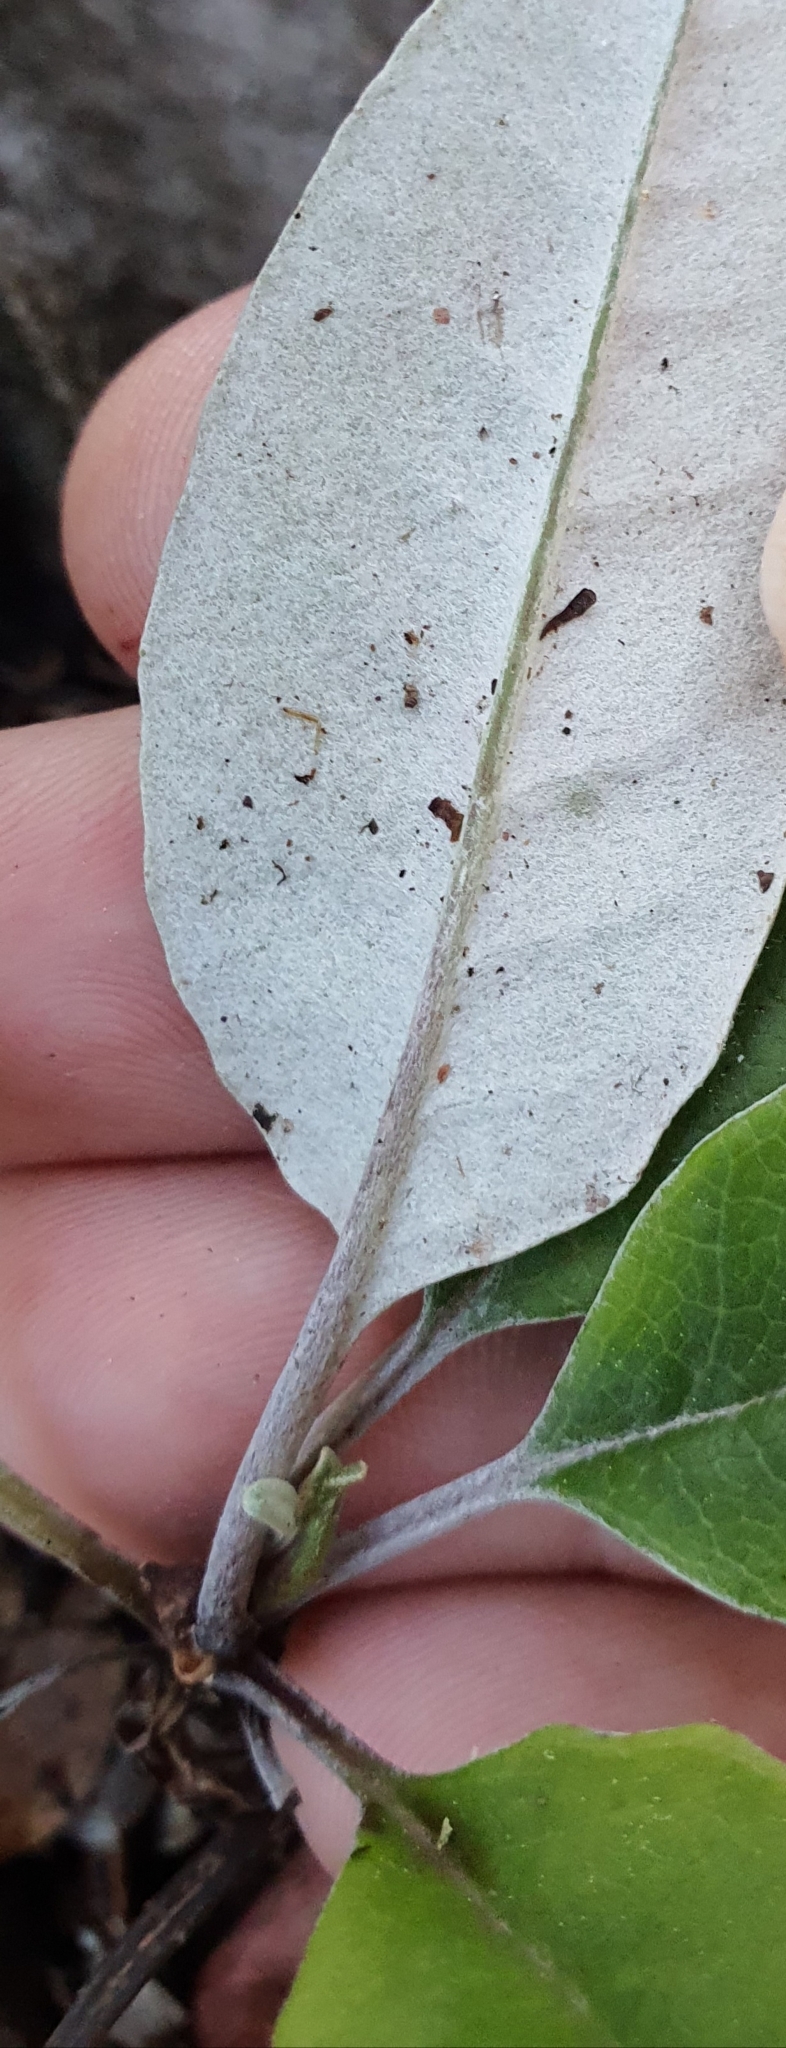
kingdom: Plantae
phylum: Tracheophyta
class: Magnoliopsida
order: Asterales
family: Asteraceae
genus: Brachyglottis
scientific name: Brachyglottis laxifolia
